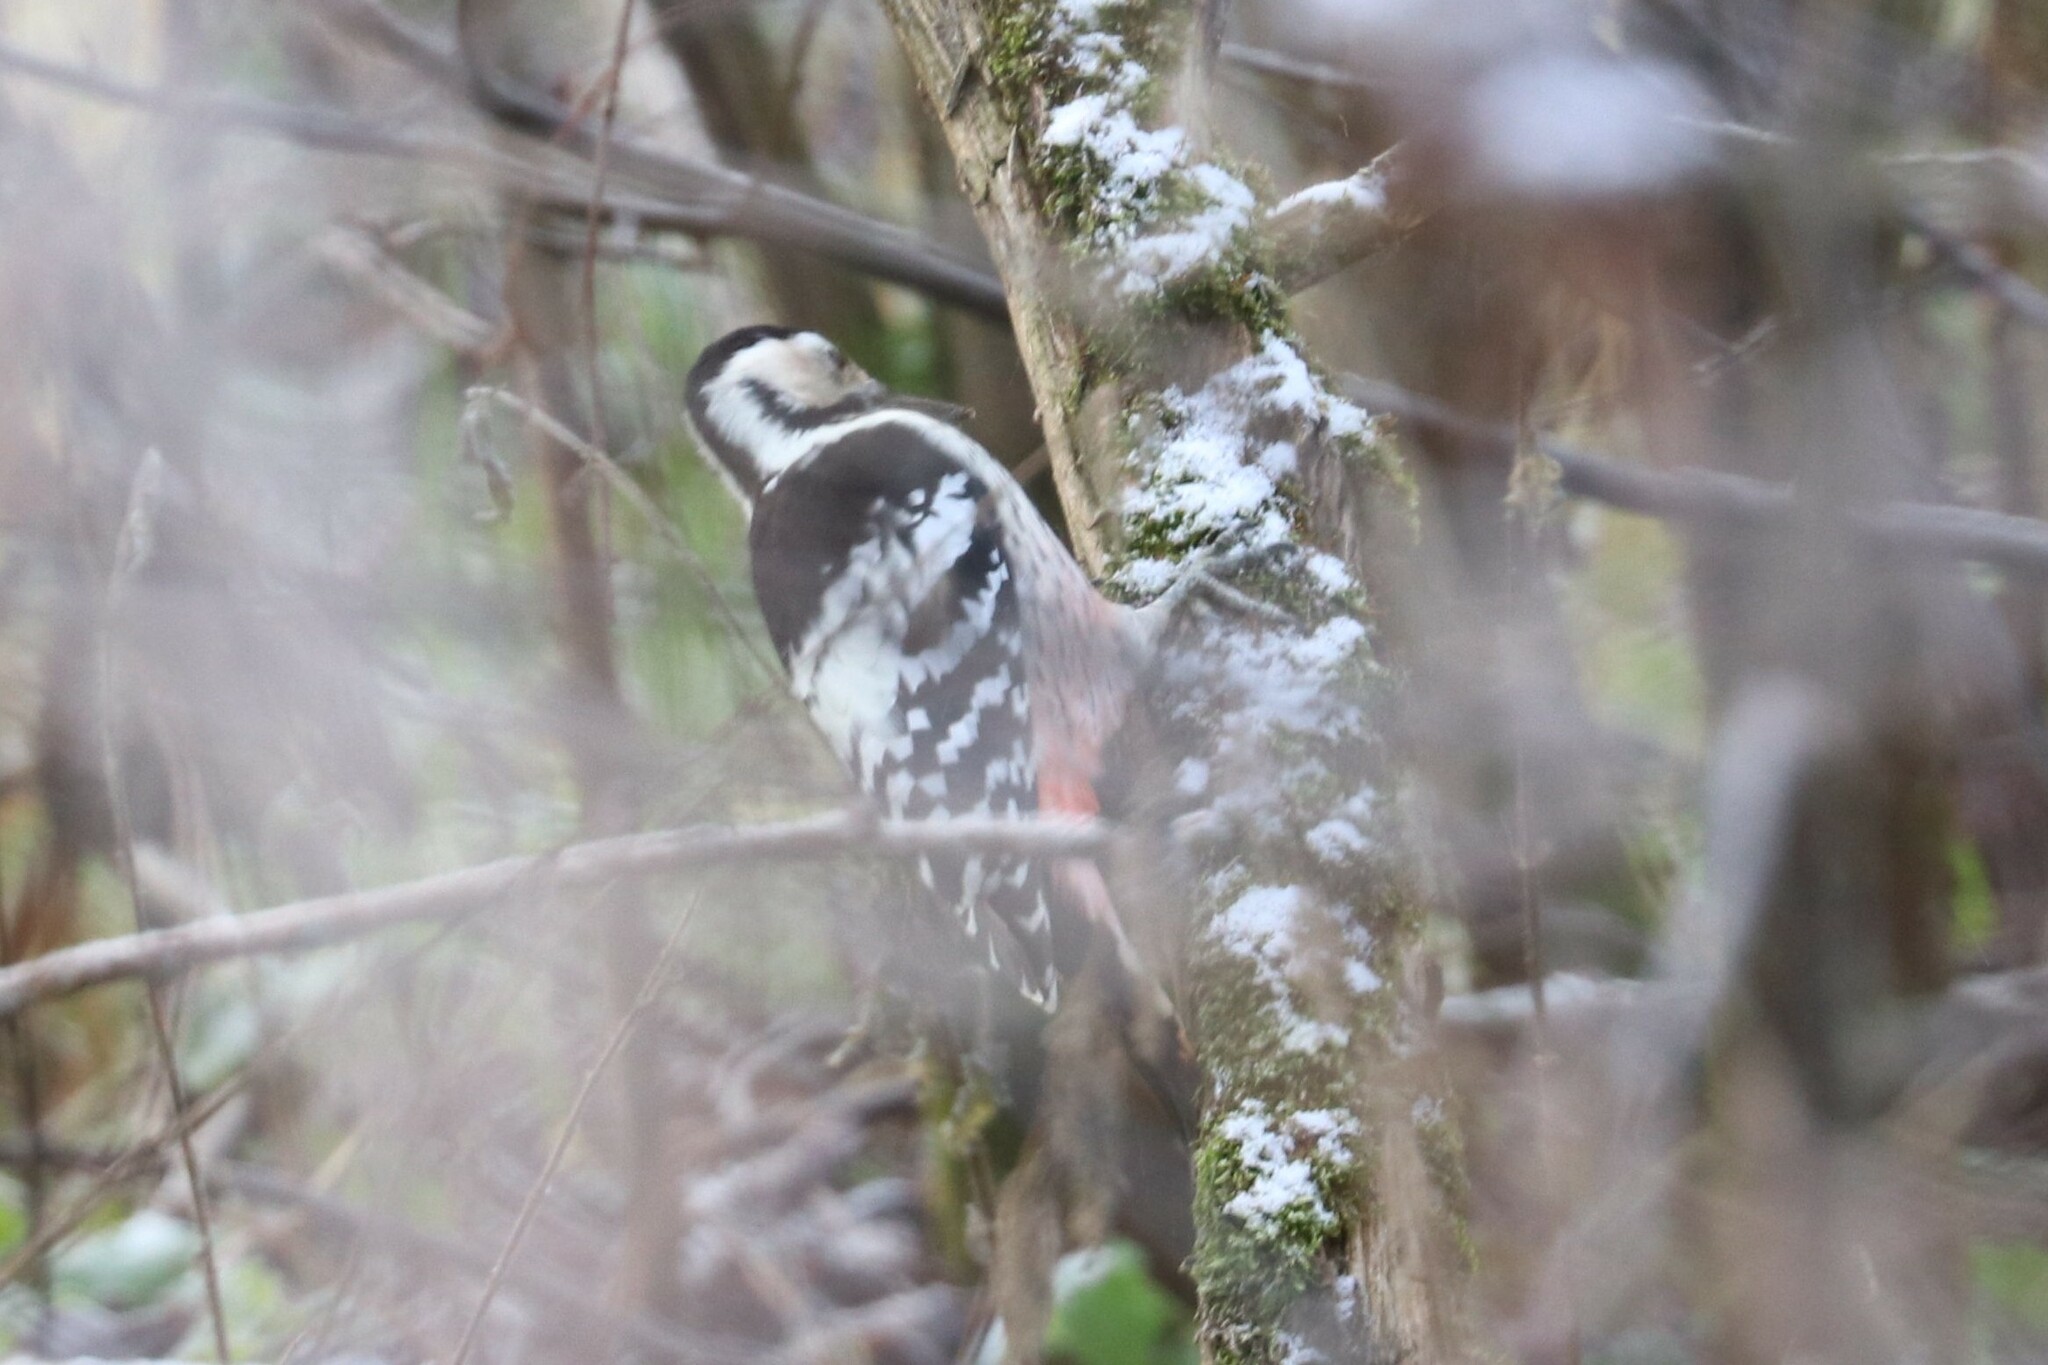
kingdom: Animalia
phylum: Chordata
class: Aves
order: Piciformes
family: Picidae
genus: Dendrocopos
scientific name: Dendrocopos leucotos
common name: White-backed woodpecker
